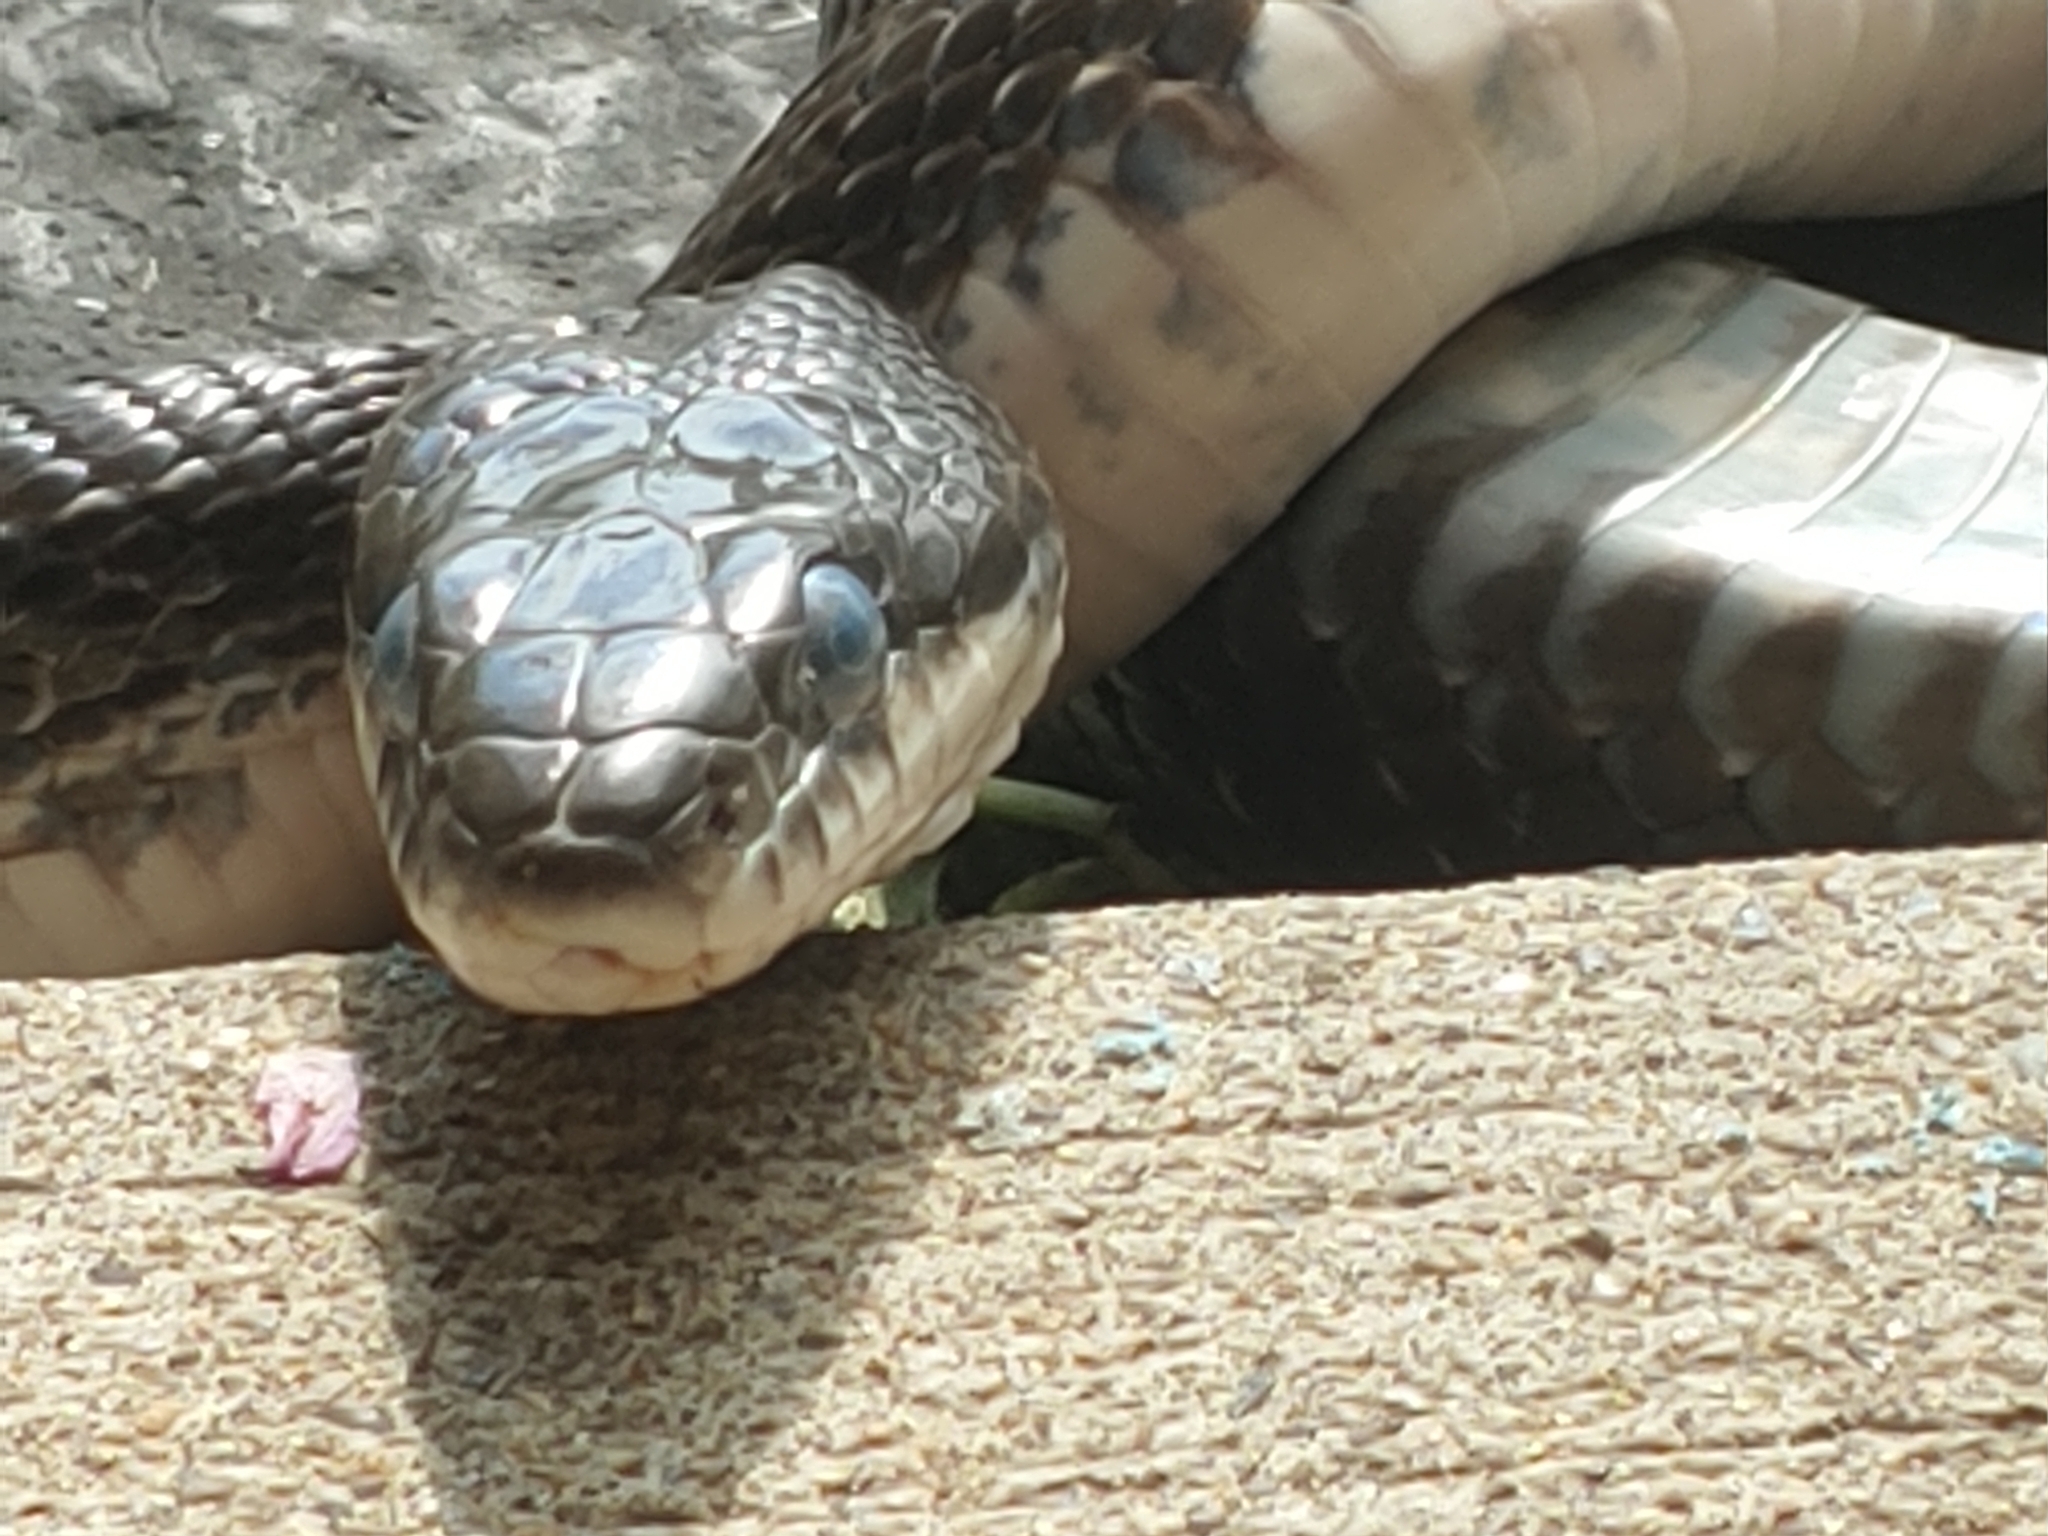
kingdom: Animalia
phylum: Chordata
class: Squamata
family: Colubridae
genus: Pantherophis
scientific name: Pantherophis
